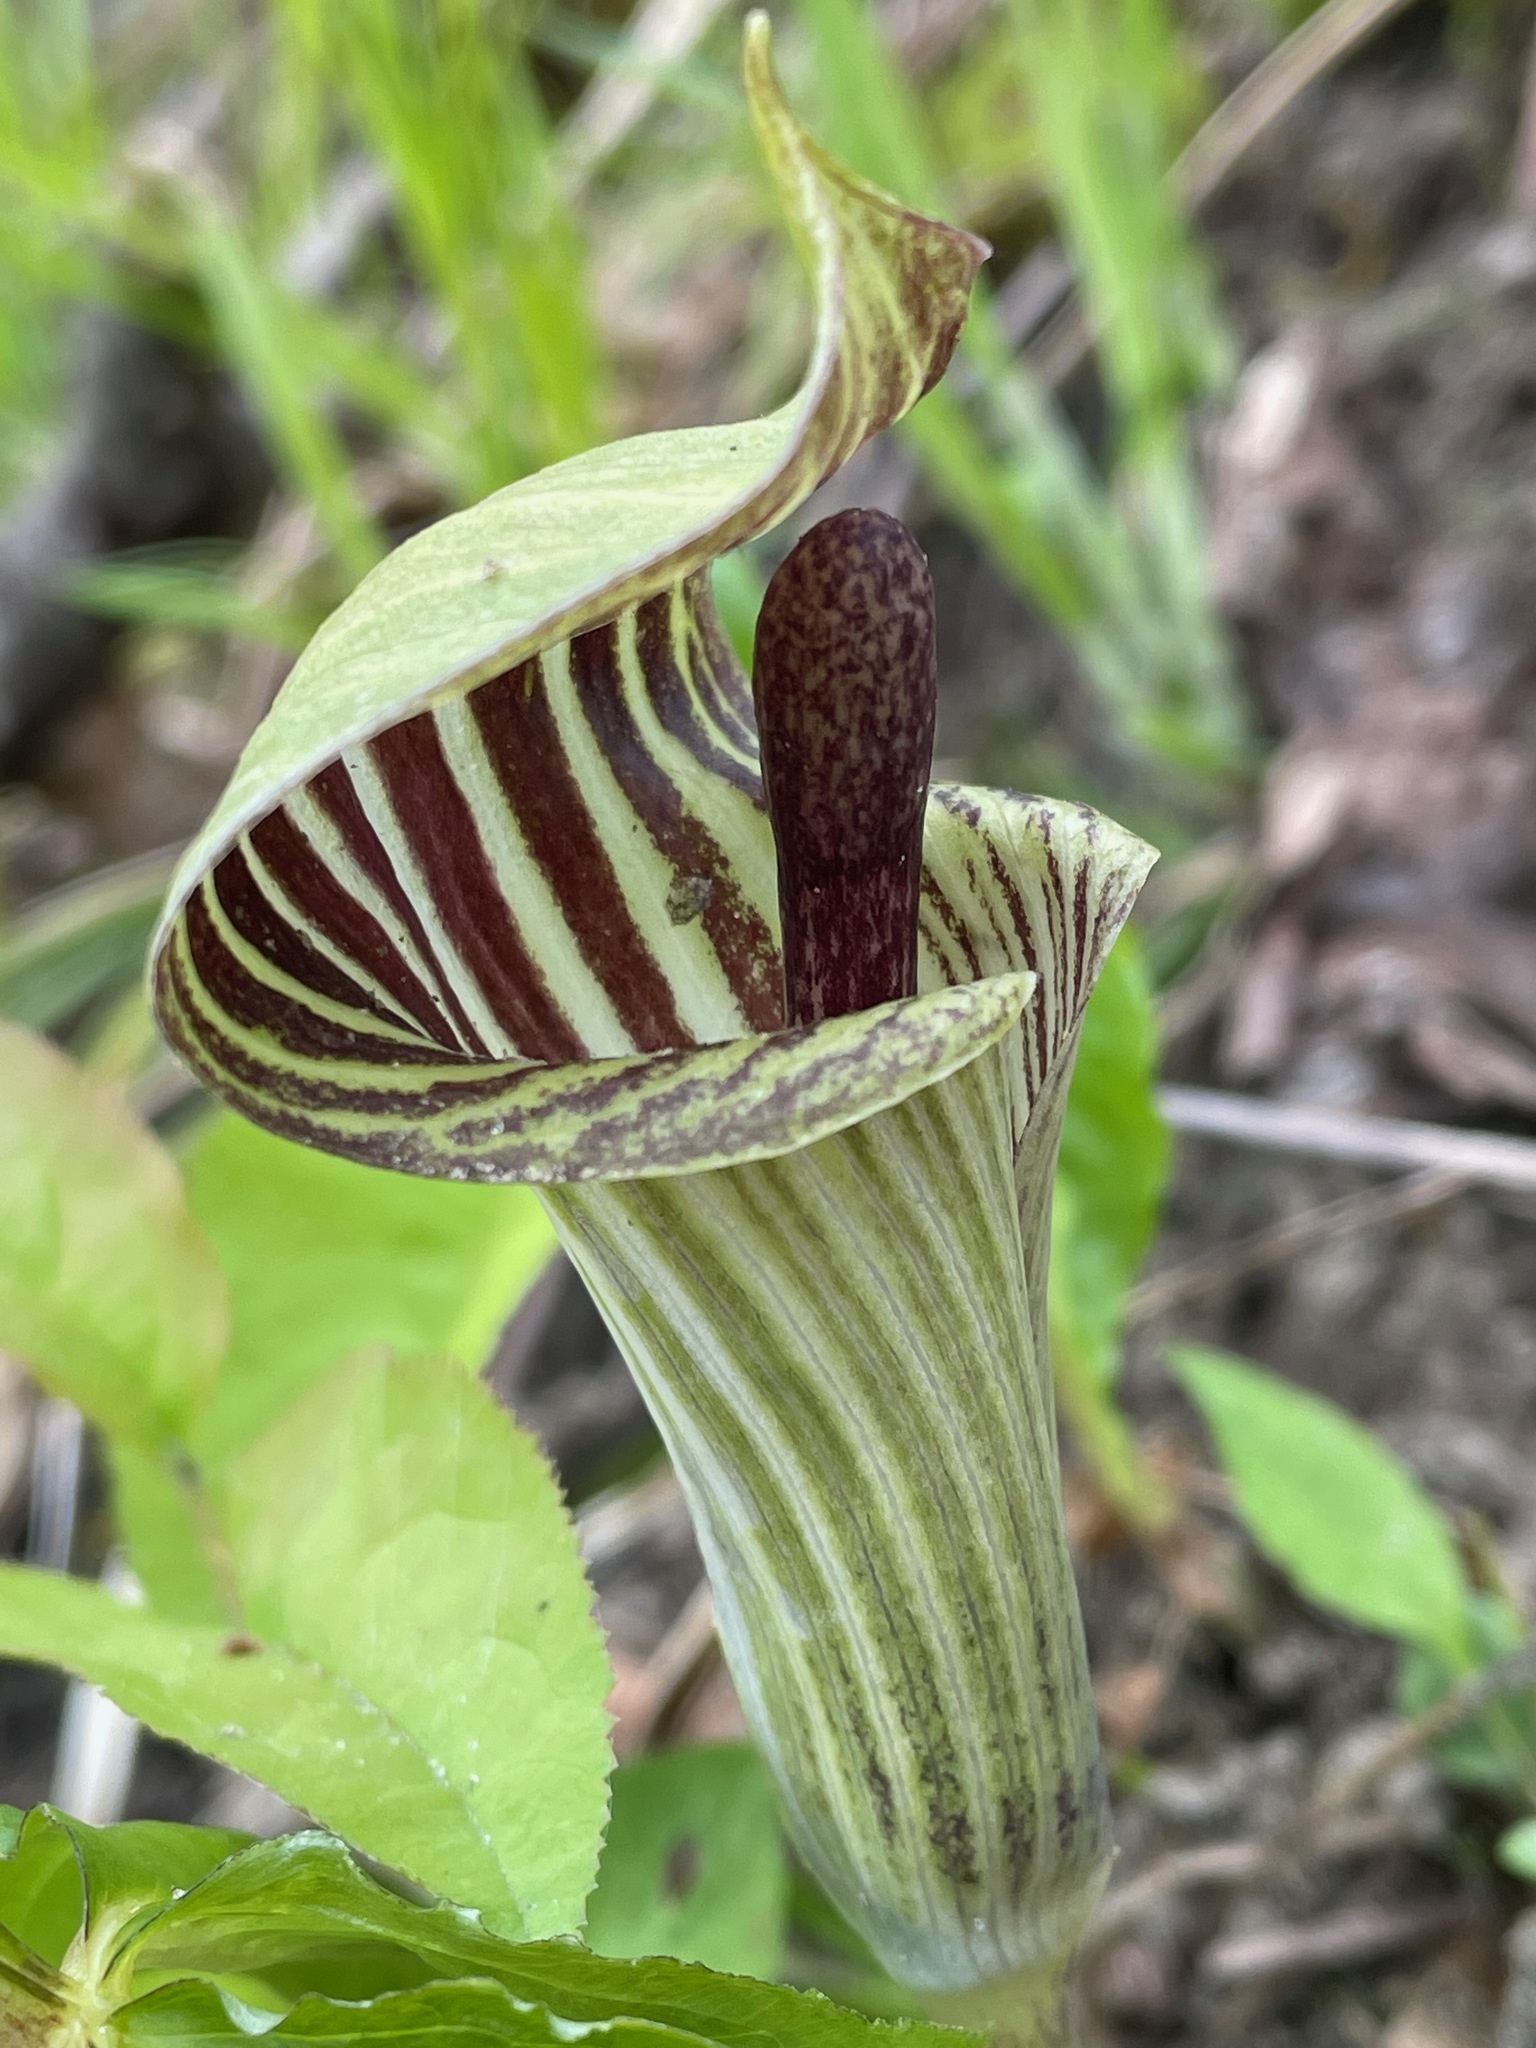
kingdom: Plantae
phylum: Tracheophyta
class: Liliopsida
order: Alismatales
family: Araceae
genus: Arisaema
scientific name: Arisaema triphyllum
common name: Jack-in-the-pulpit
